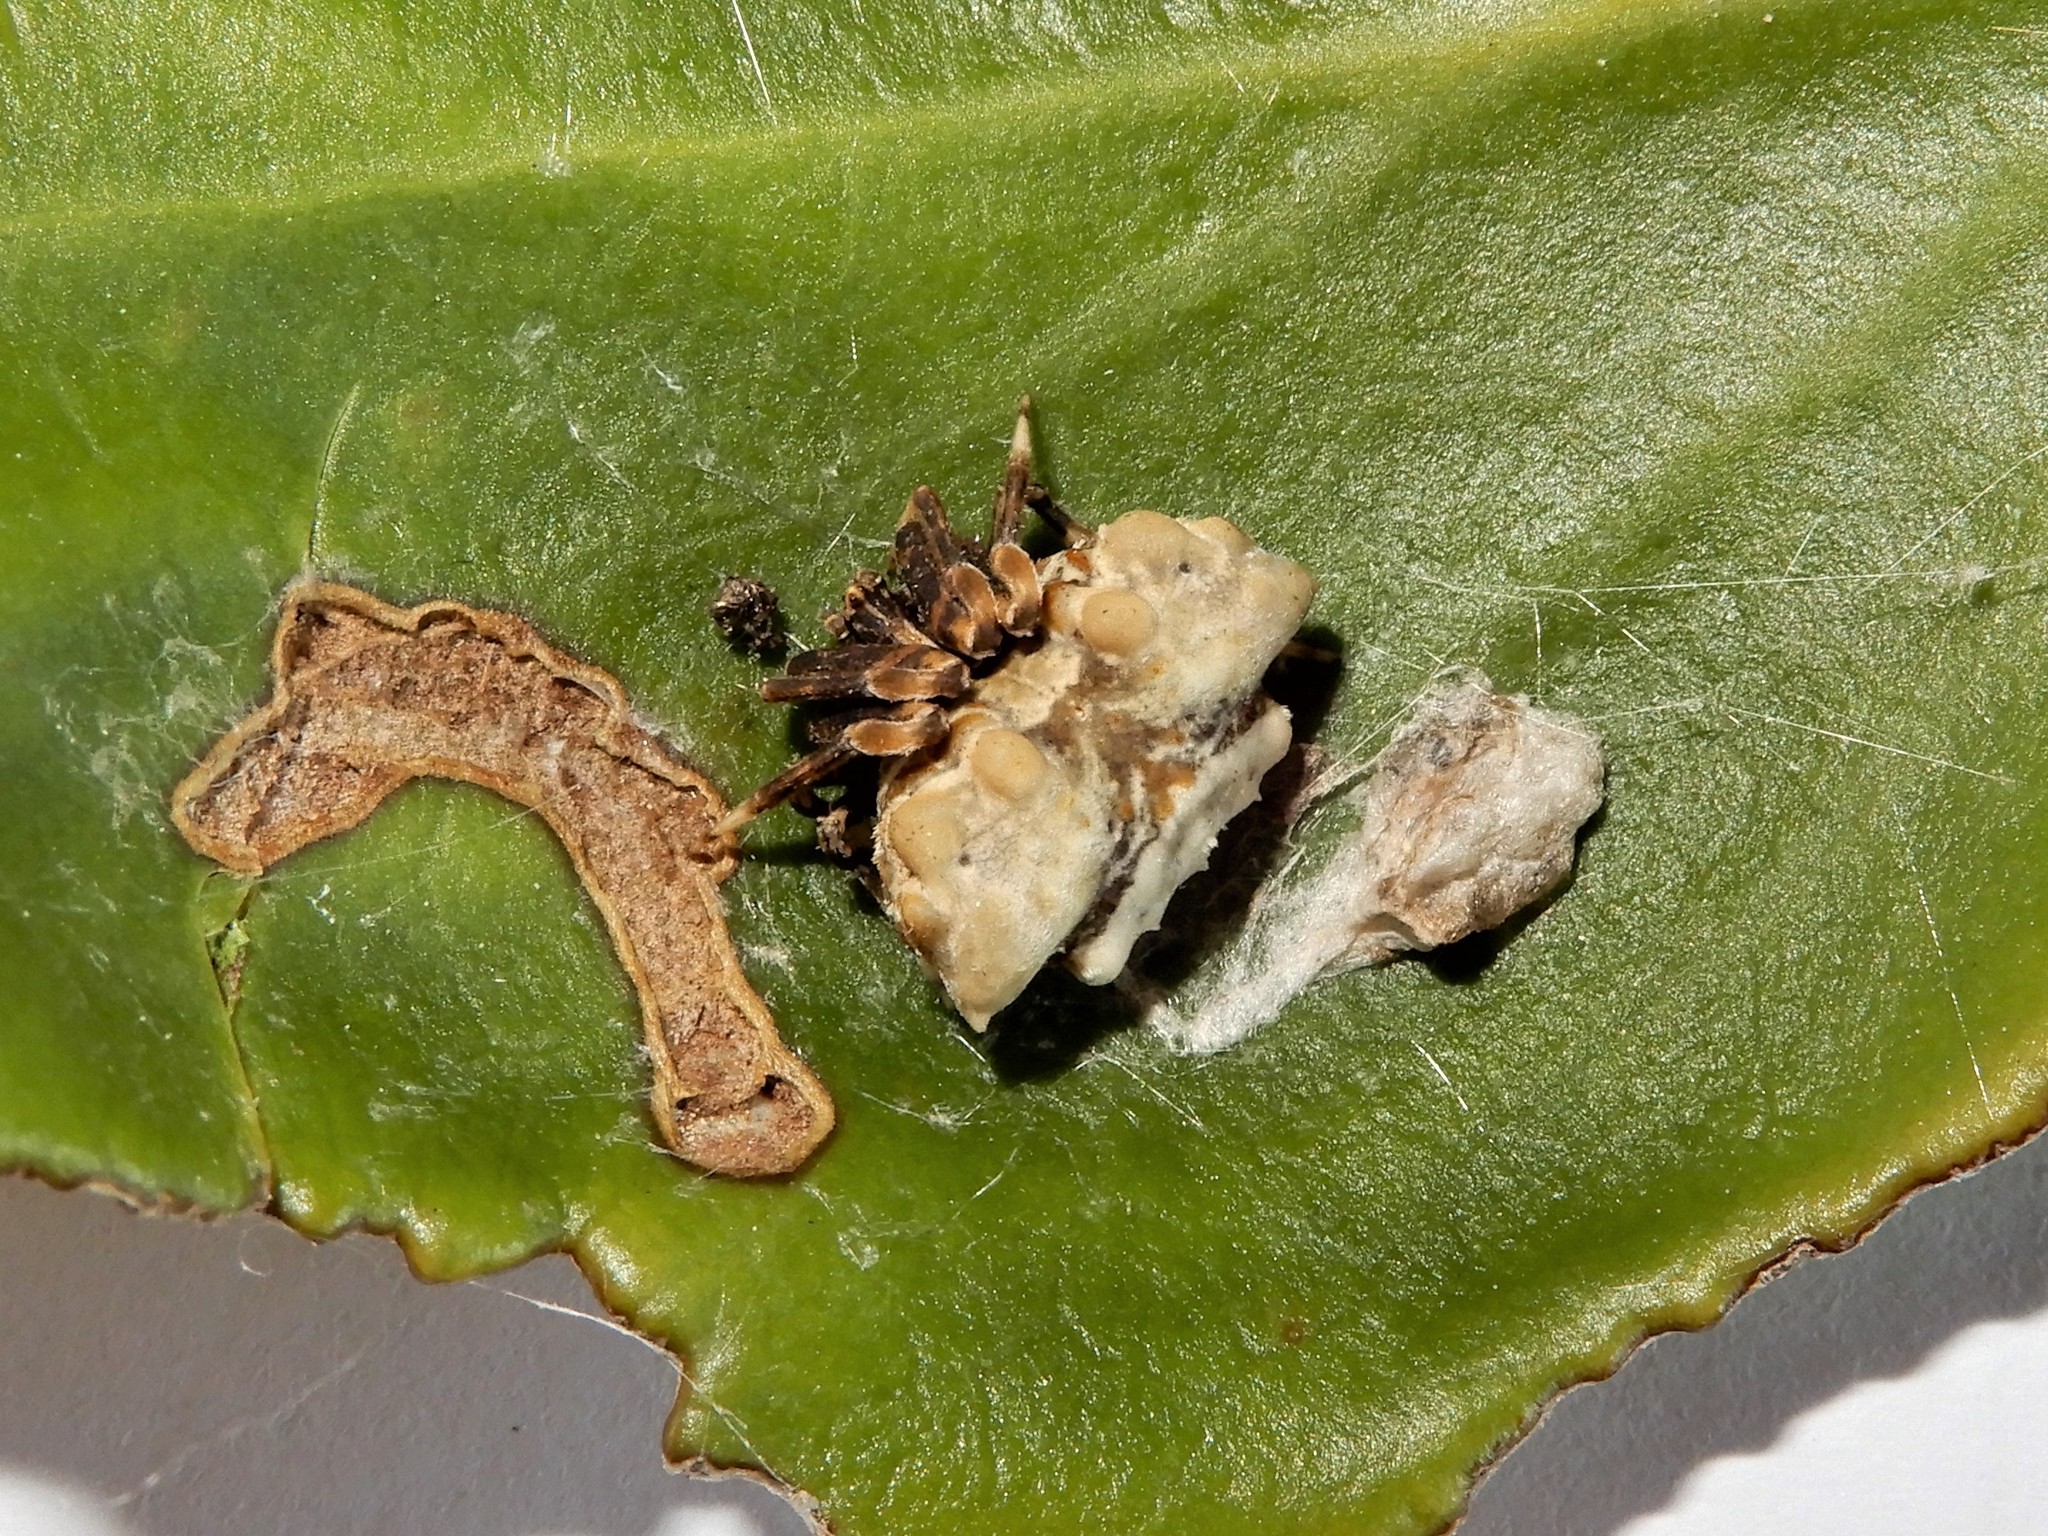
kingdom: Animalia
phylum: Arthropoda
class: Arachnida
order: Araneae
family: Araneidae
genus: Celaenia
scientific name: Celaenia tuberosa
